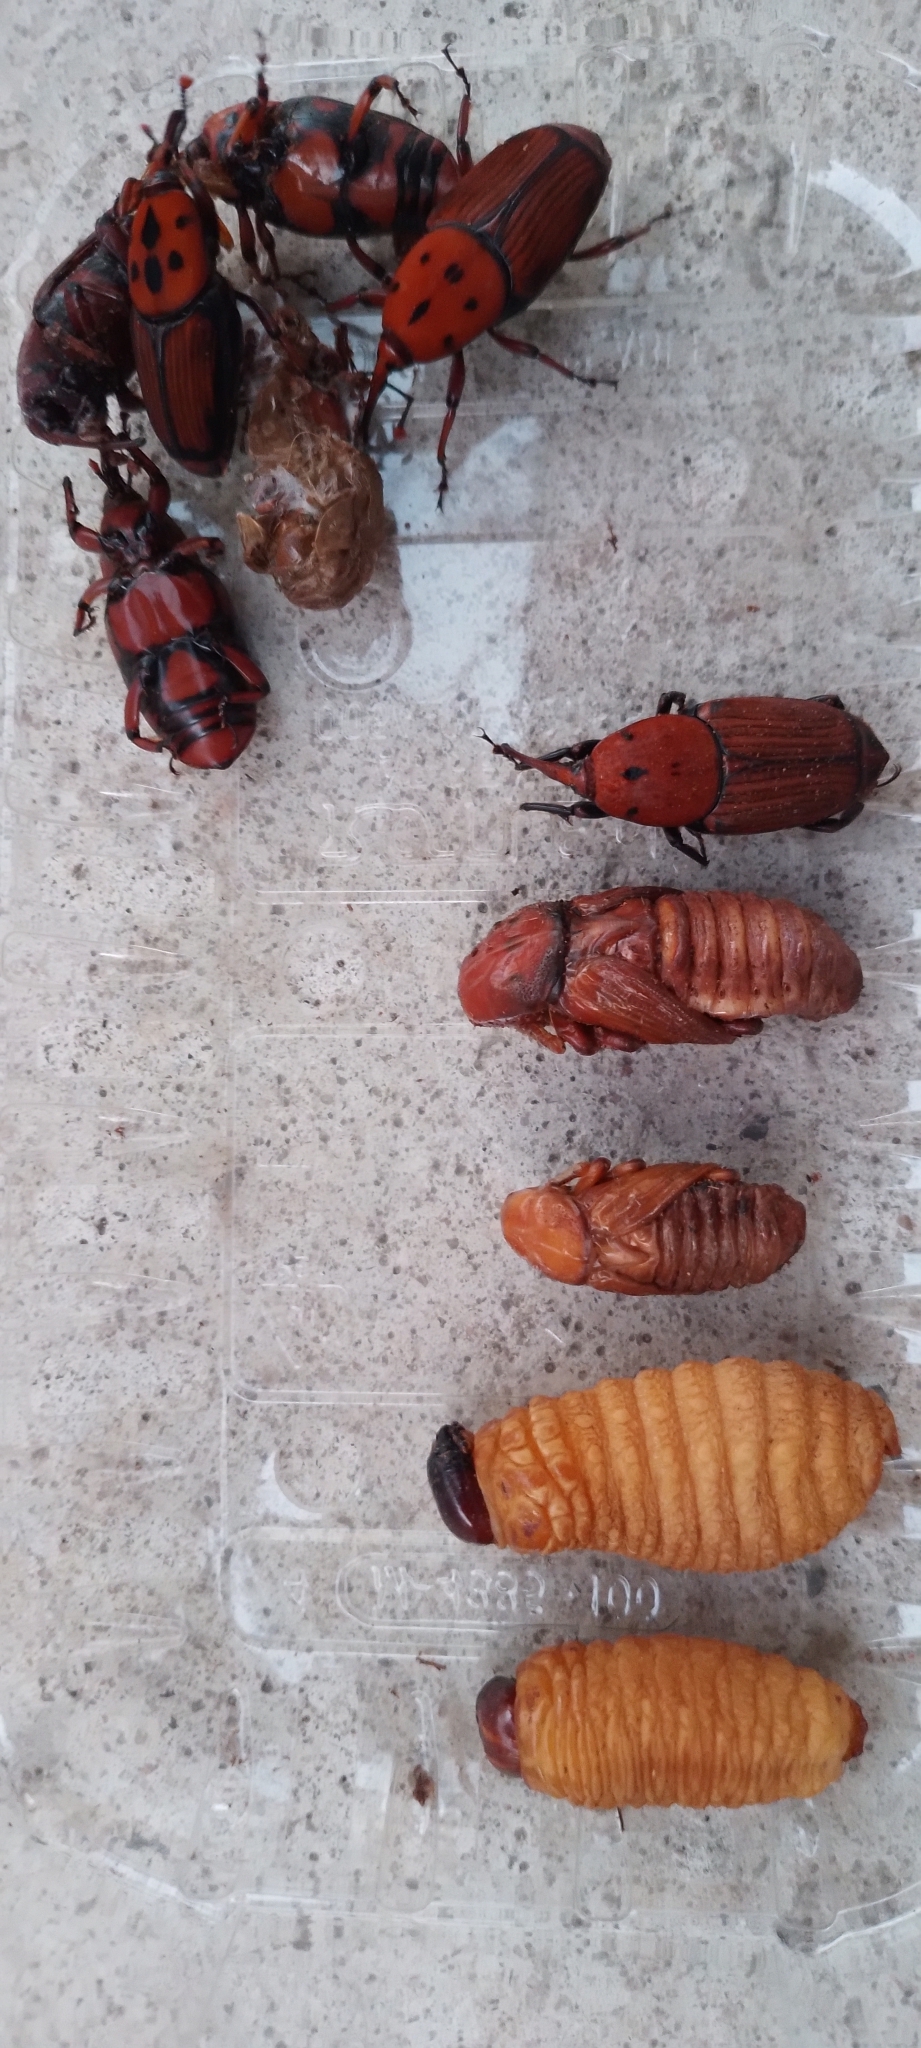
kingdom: Animalia
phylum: Arthropoda
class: Insecta
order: Coleoptera
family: Dryophthoridae
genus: Rhynchophorus
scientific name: Rhynchophorus ferrugineus
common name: Red palm weevil
